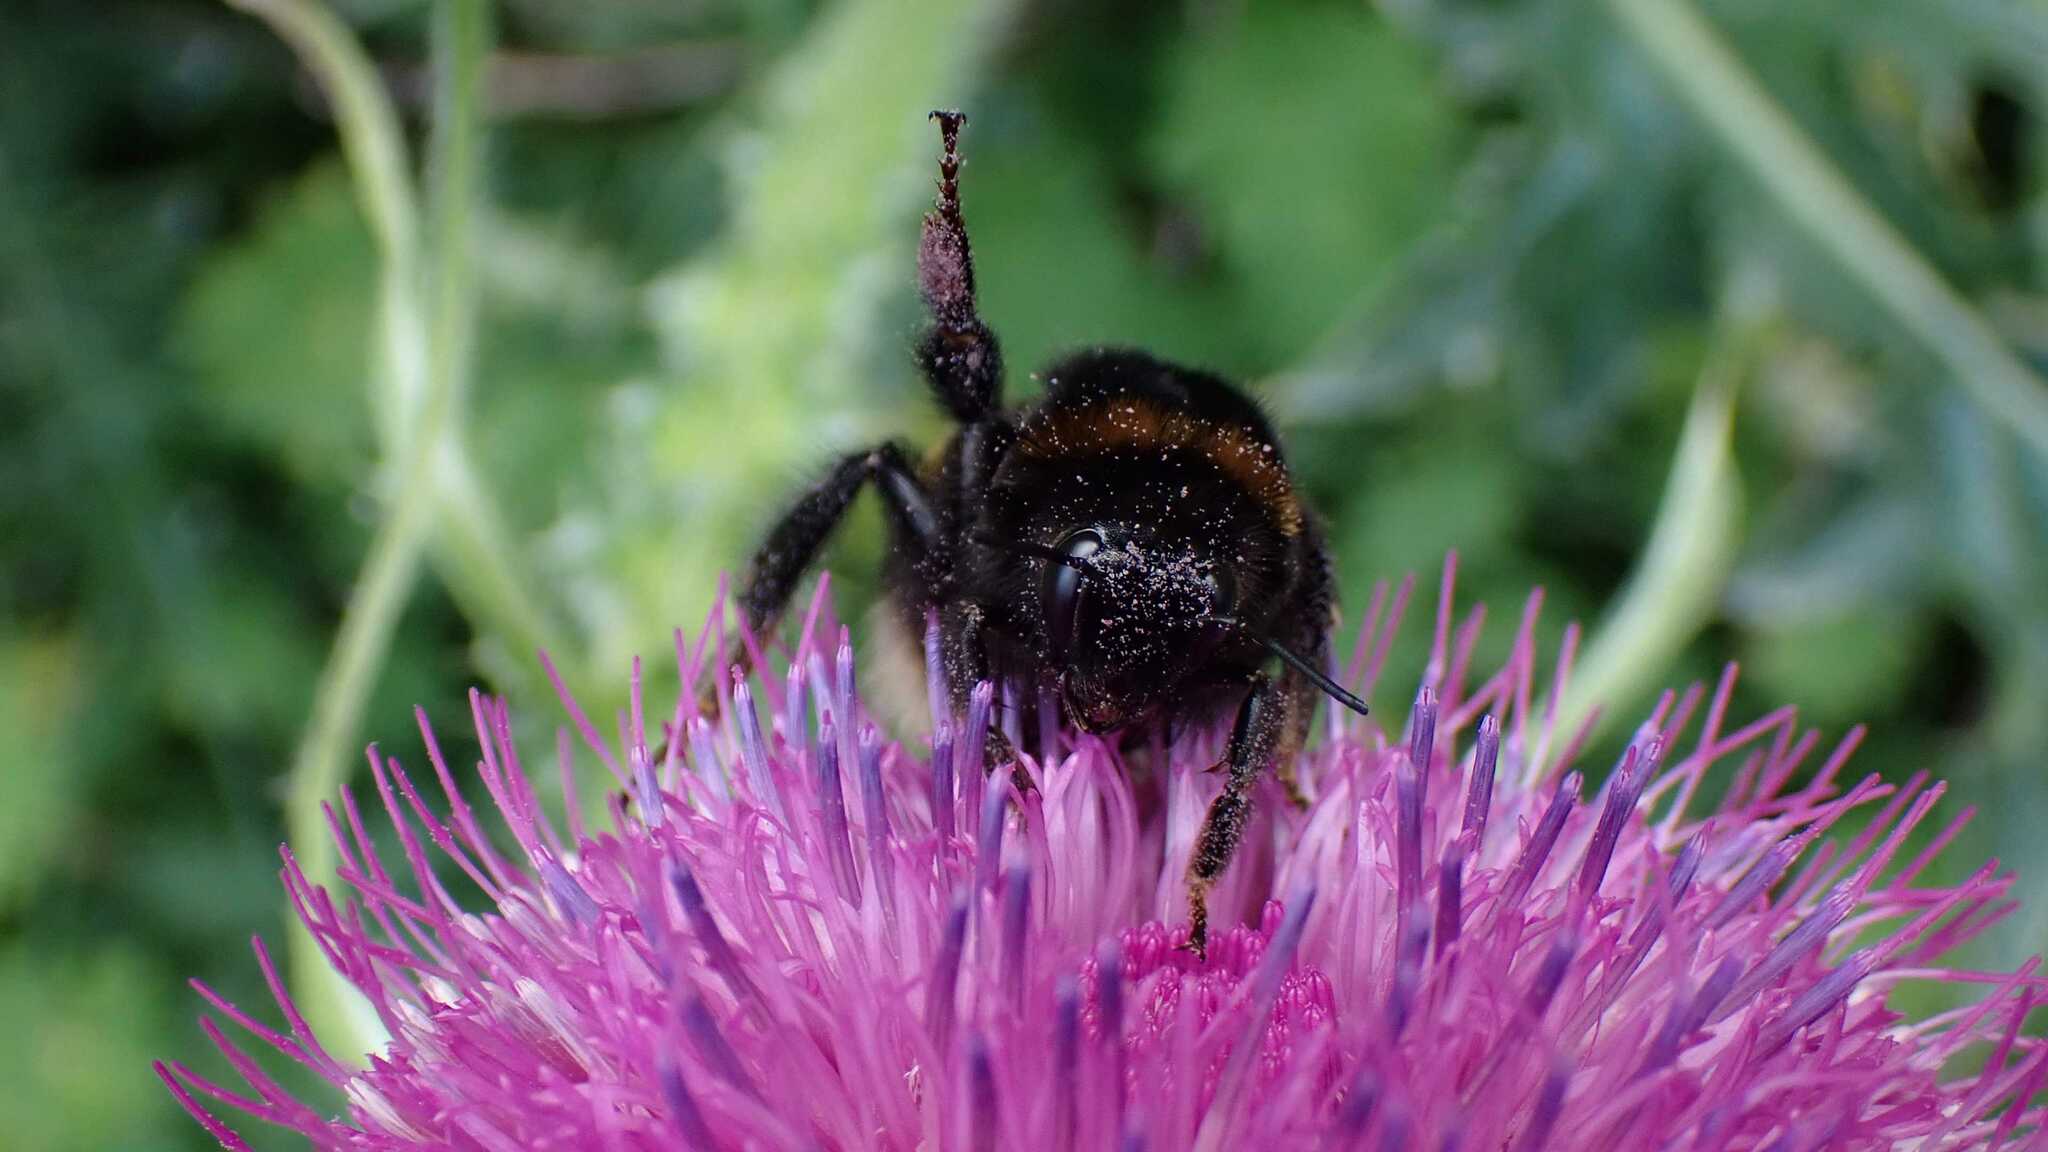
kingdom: Animalia
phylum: Arthropoda
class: Insecta
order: Hymenoptera
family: Apidae
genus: Bombus
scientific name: Bombus
